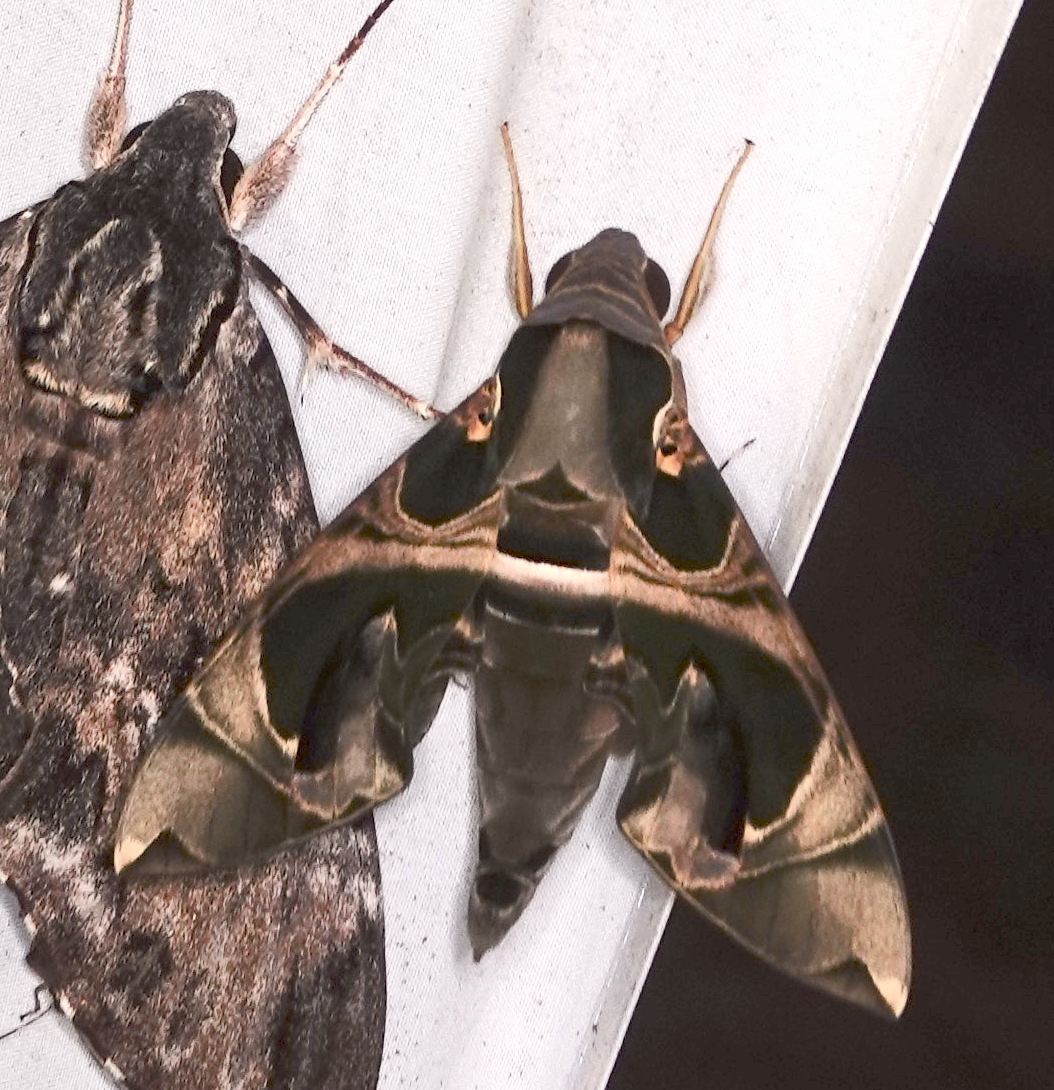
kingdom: Animalia
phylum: Arthropoda
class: Insecta
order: Lepidoptera
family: Sphingidae
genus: Daphnis
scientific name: Daphnis hypothous
